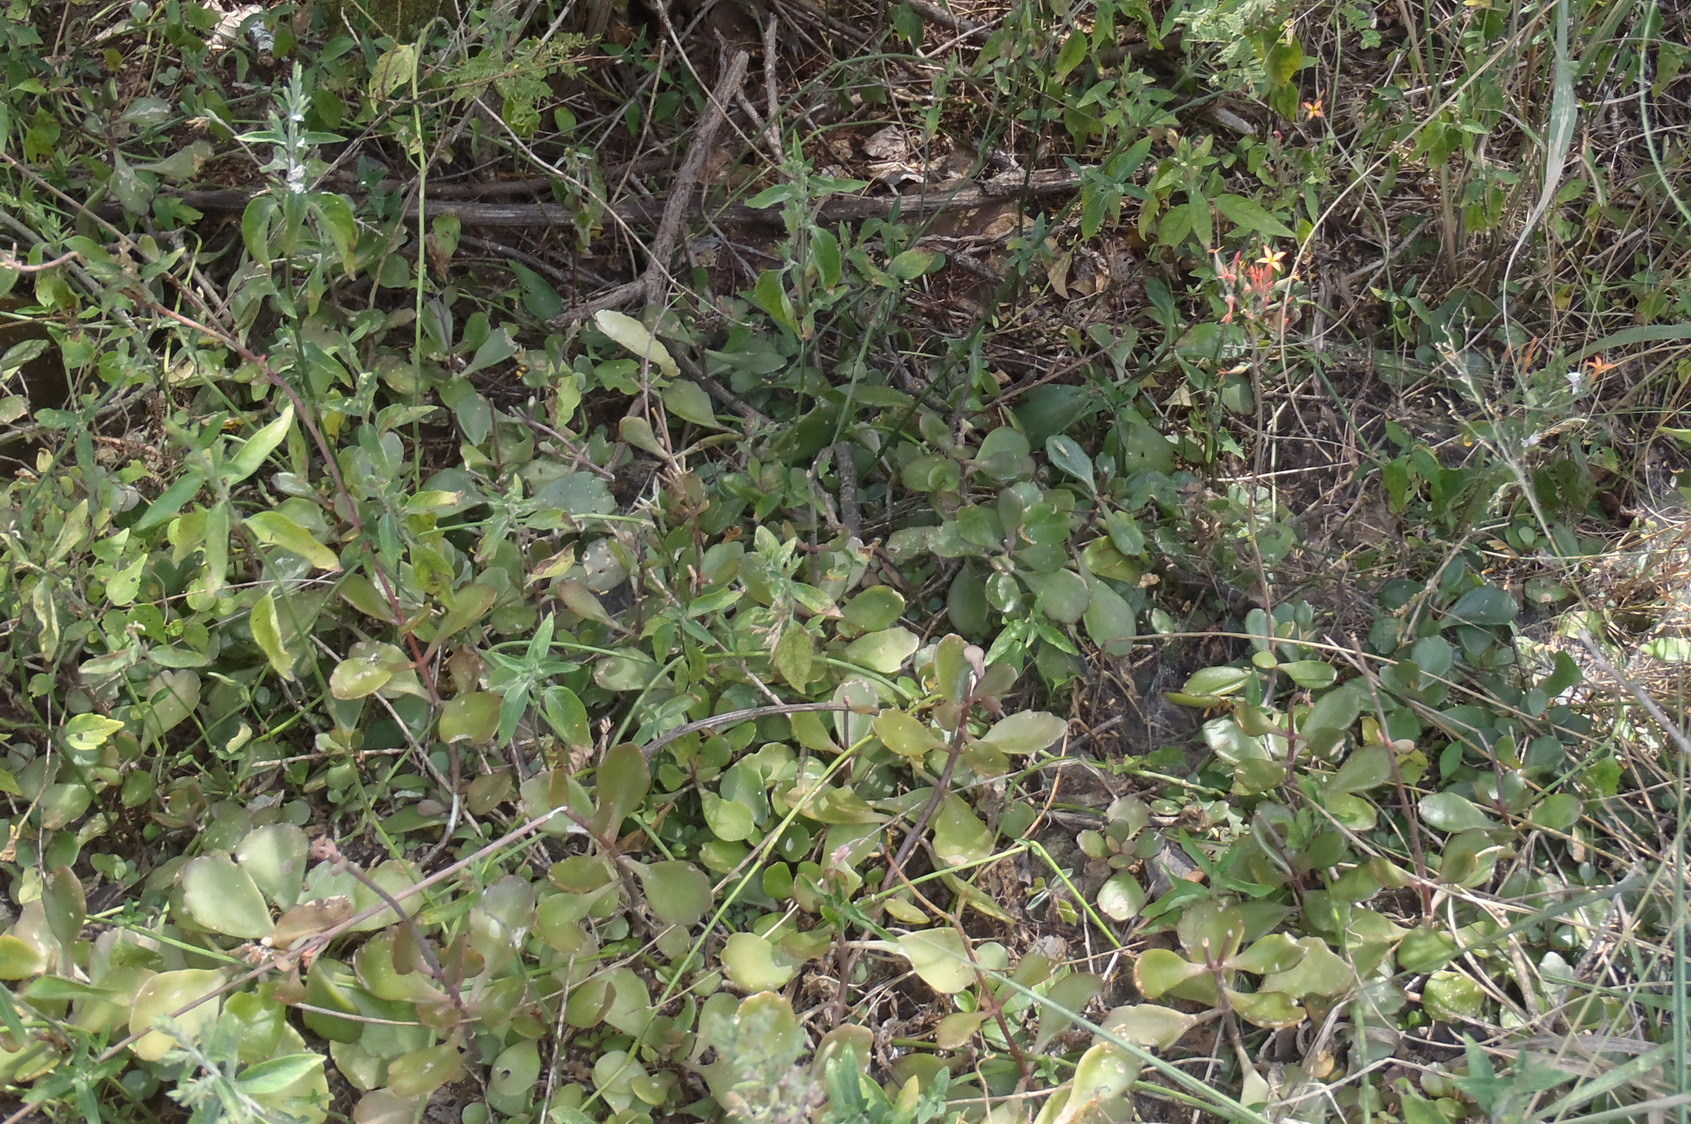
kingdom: Plantae
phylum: Tracheophyta
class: Magnoliopsida
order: Saxifragales
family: Crassulaceae
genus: Kalanchoe
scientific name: Kalanchoe rotundifolia
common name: Common kalanchoe
